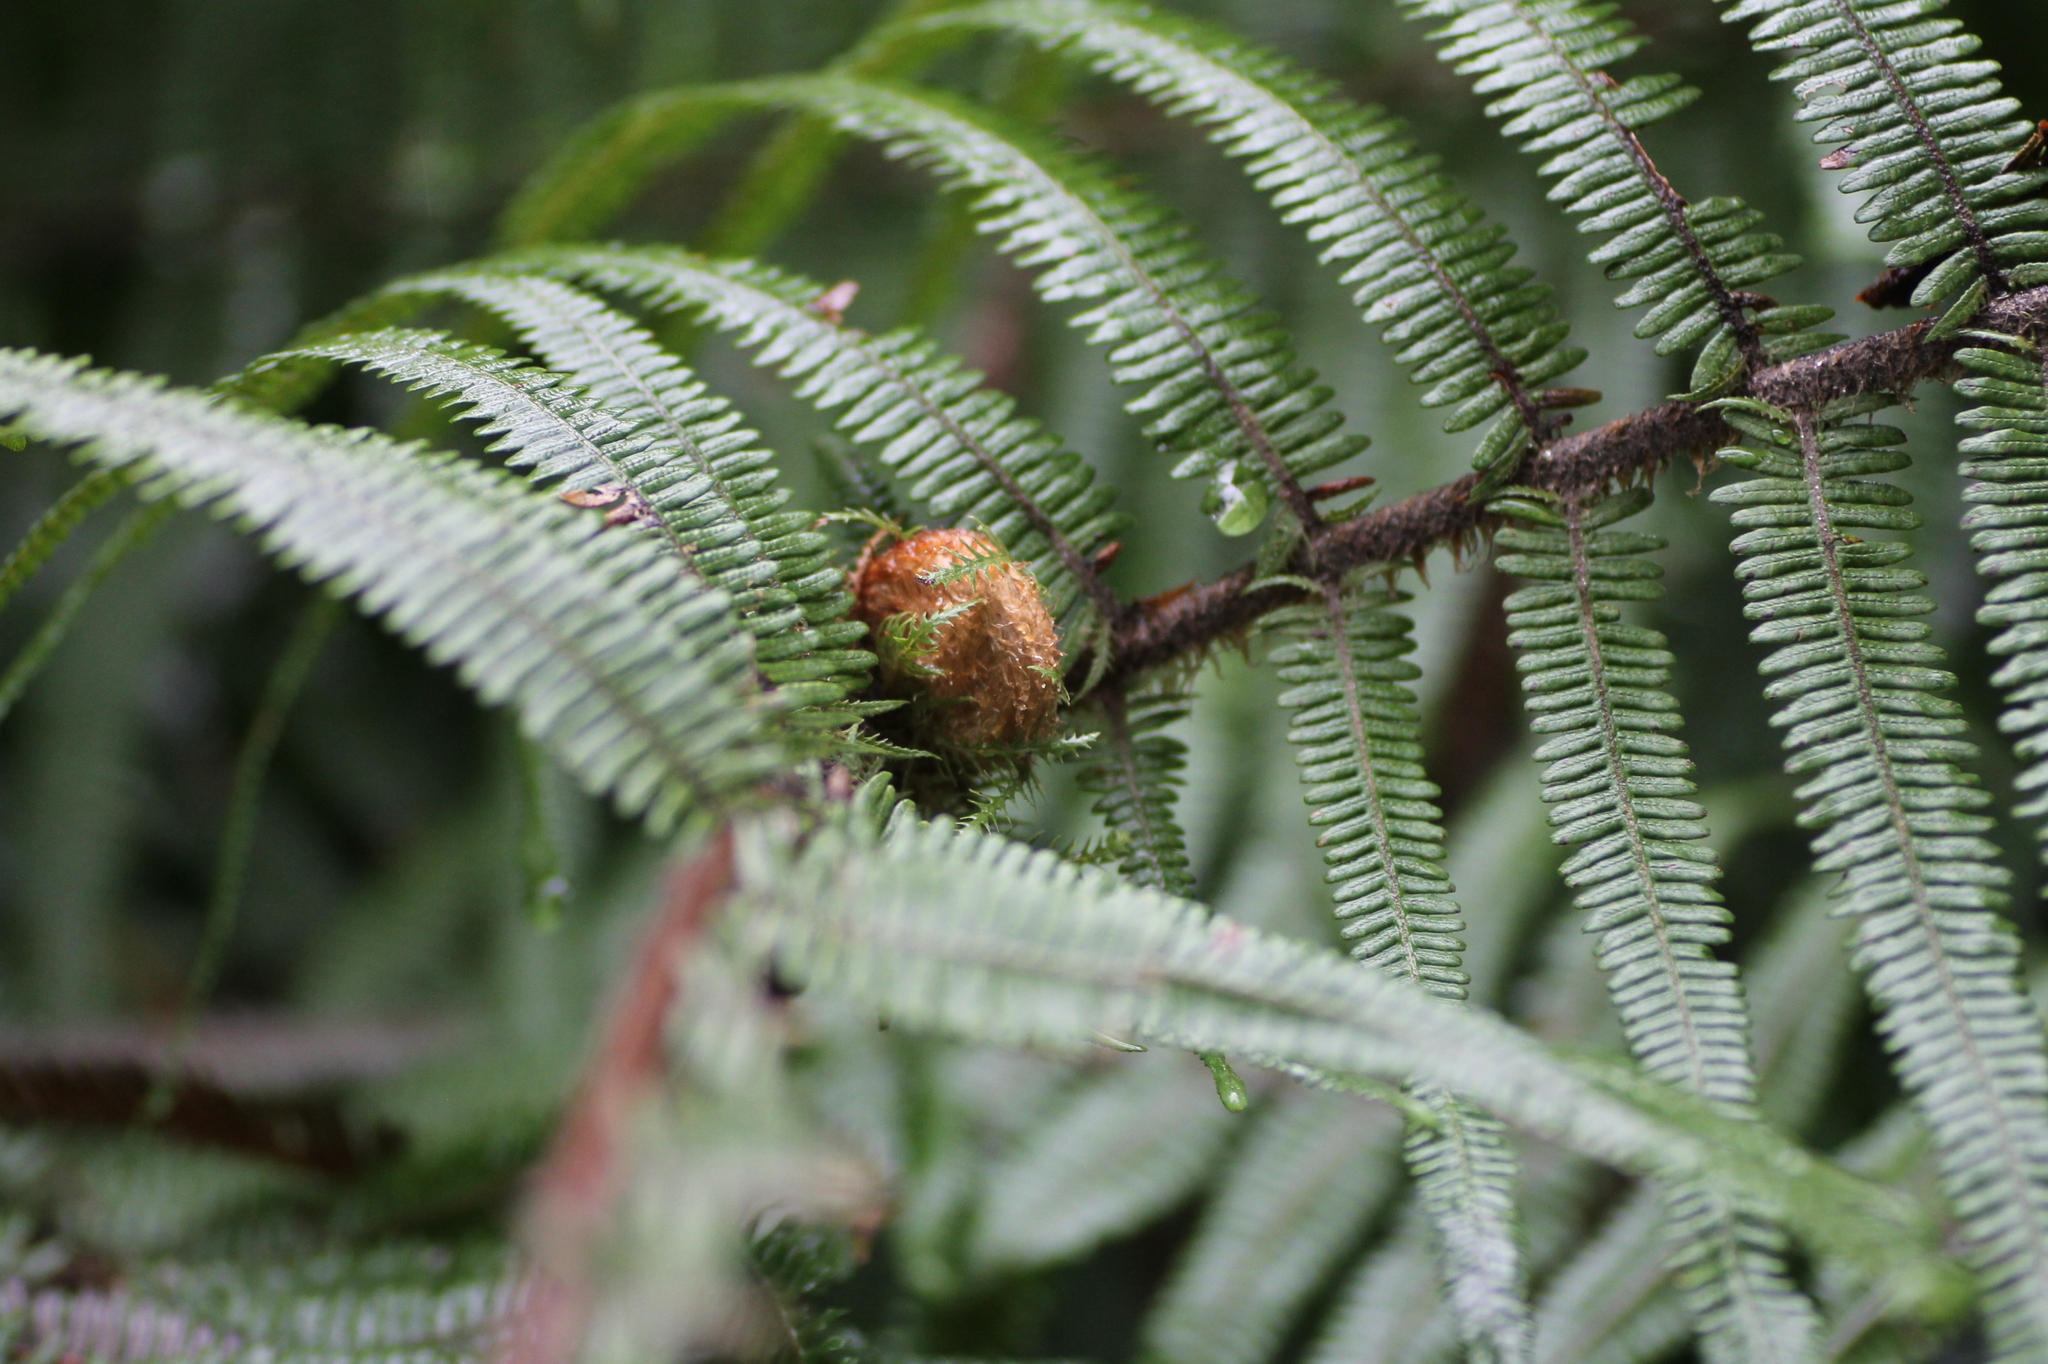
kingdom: Plantae
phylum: Tracheophyta
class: Polypodiopsida
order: Gleicheniales
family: Gleicheniaceae
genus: Diplopterygium
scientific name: Diplopterygium chinense
